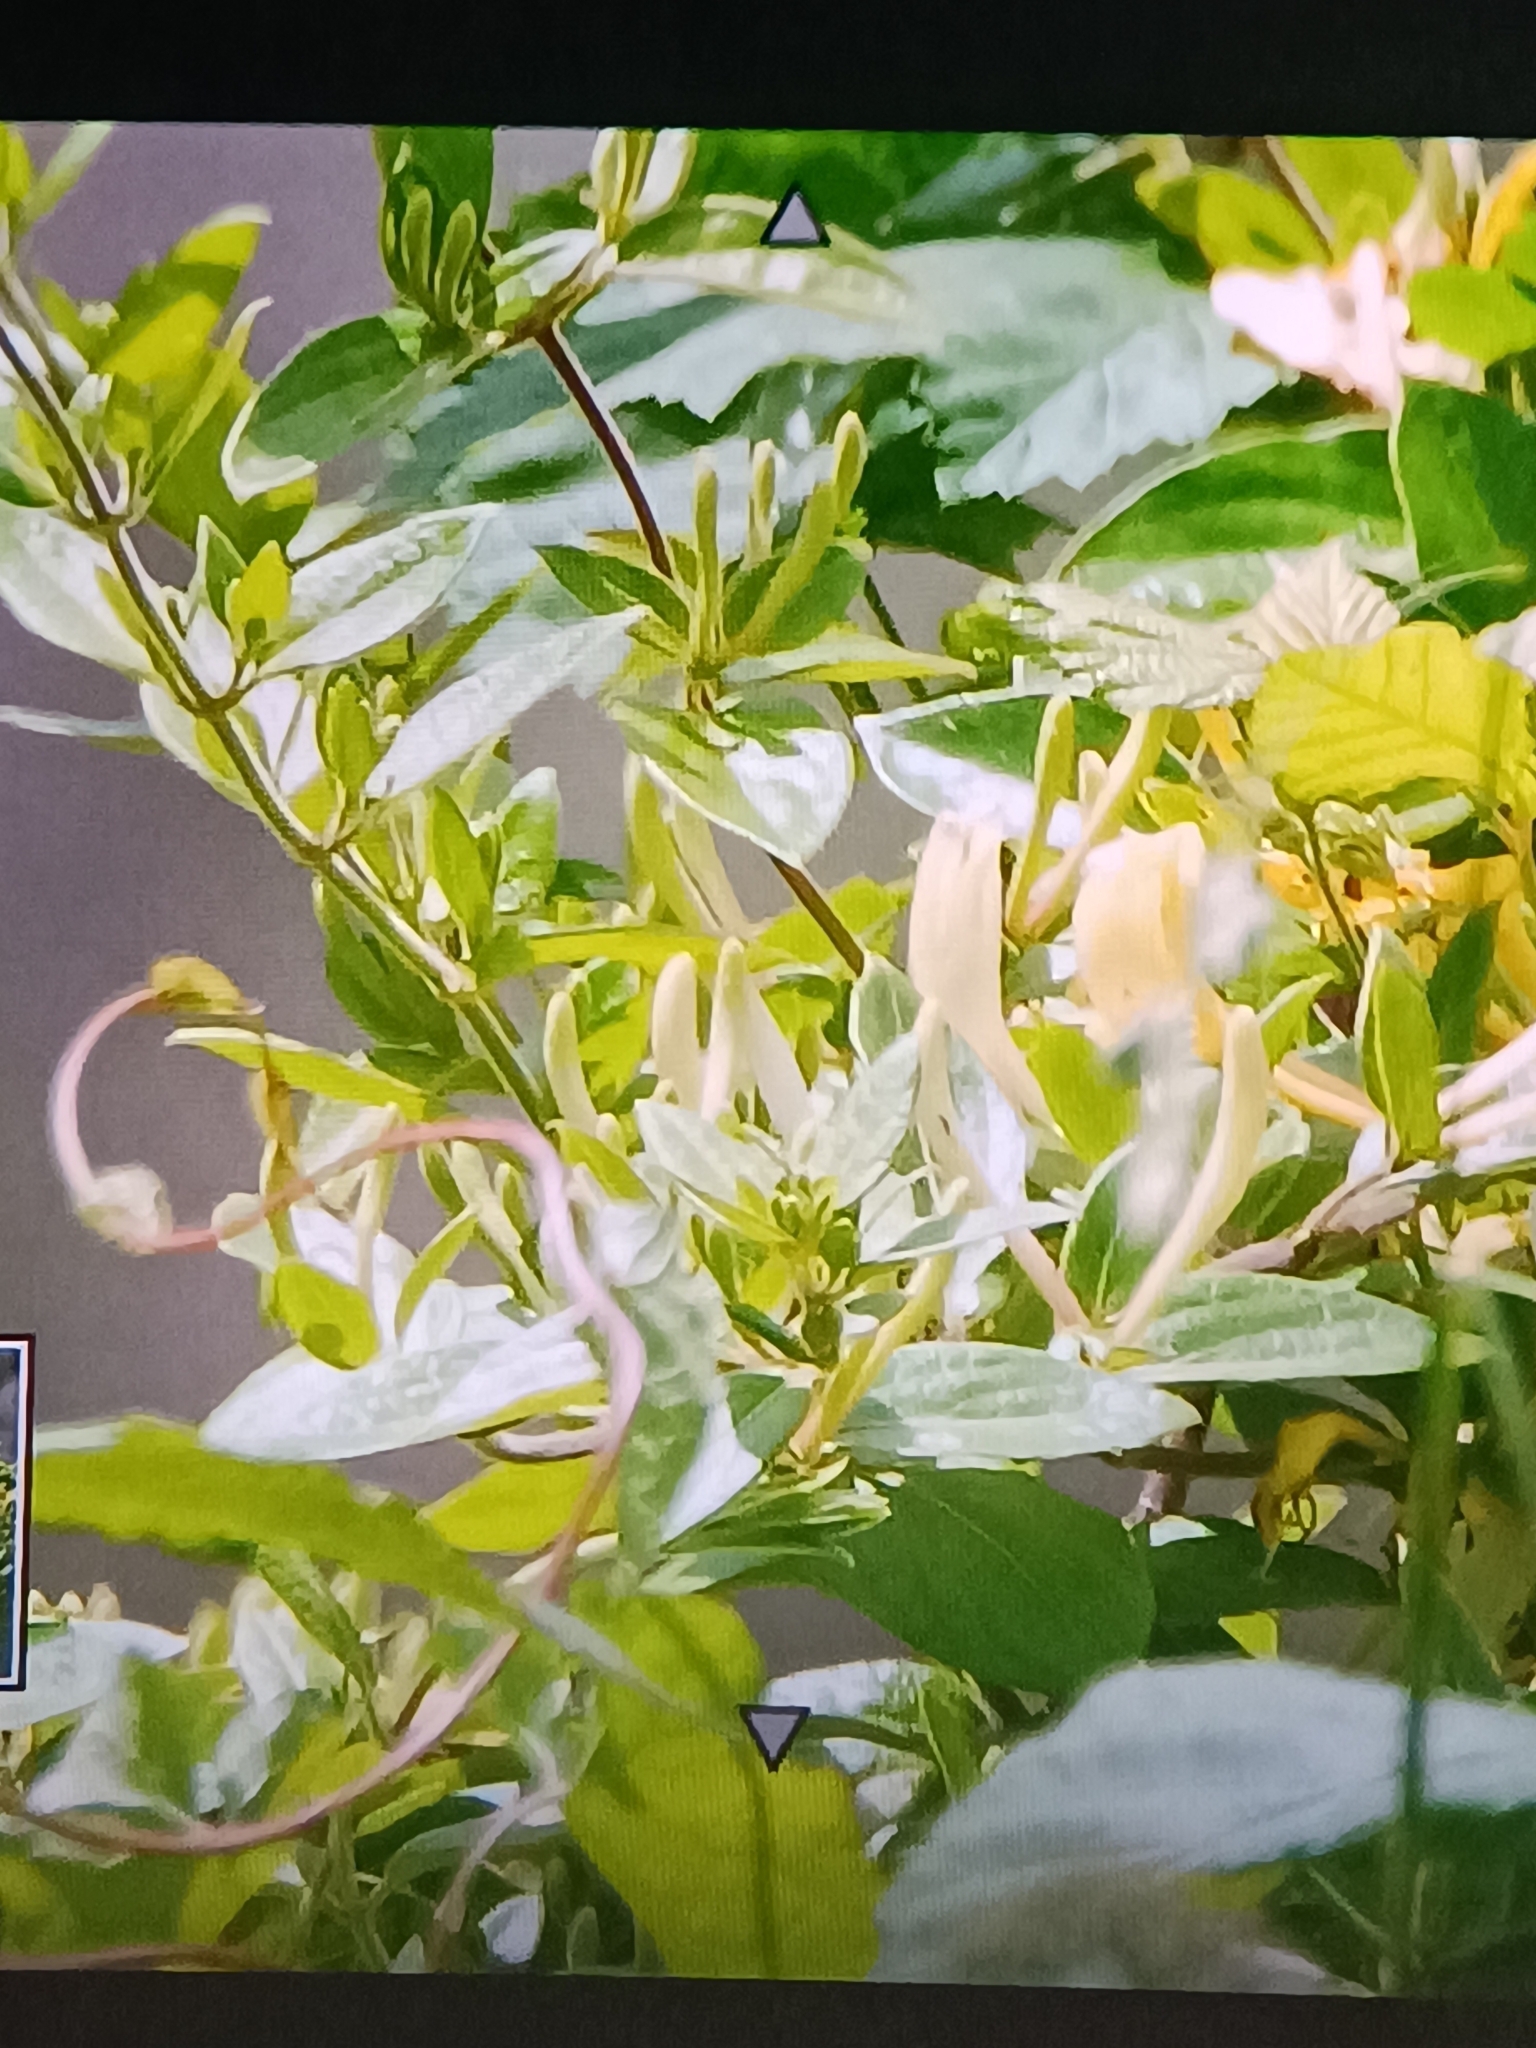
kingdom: Plantae
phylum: Tracheophyta
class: Magnoliopsida
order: Dipsacales
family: Caprifoliaceae
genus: Lonicera
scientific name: Lonicera japonica
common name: Japanese honeysuckle
